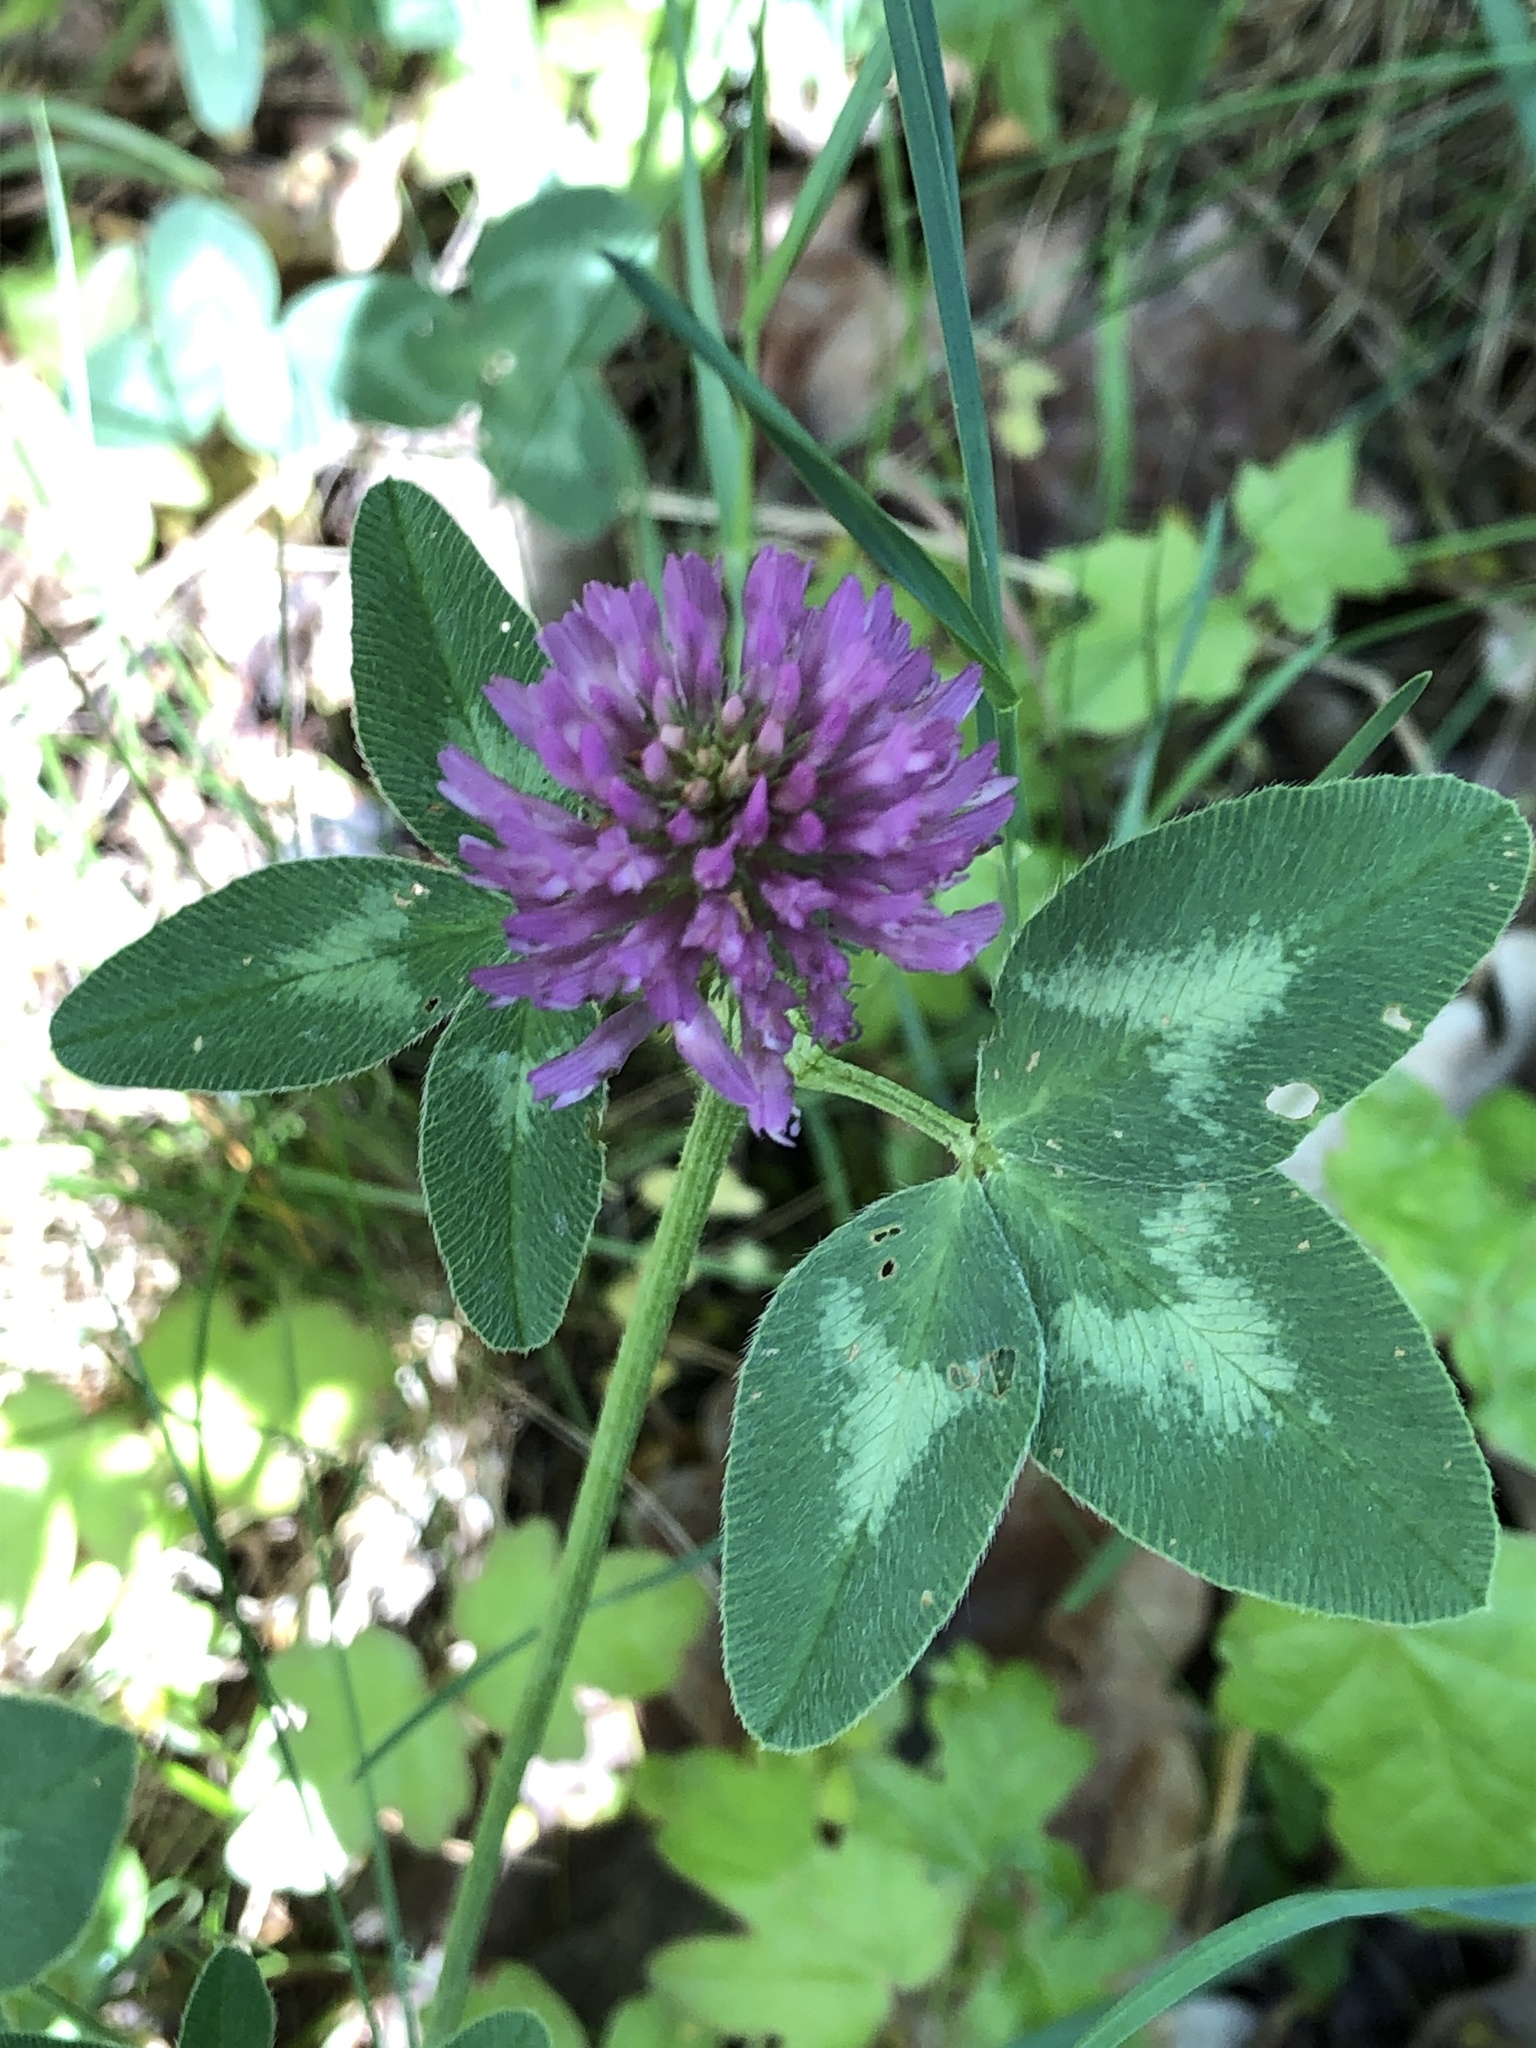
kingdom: Plantae
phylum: Tracheophyta
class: Magnoliopsida
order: Fabales
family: Fabaceae
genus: Trifolium
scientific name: Trifolium pratense
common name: Red clover
